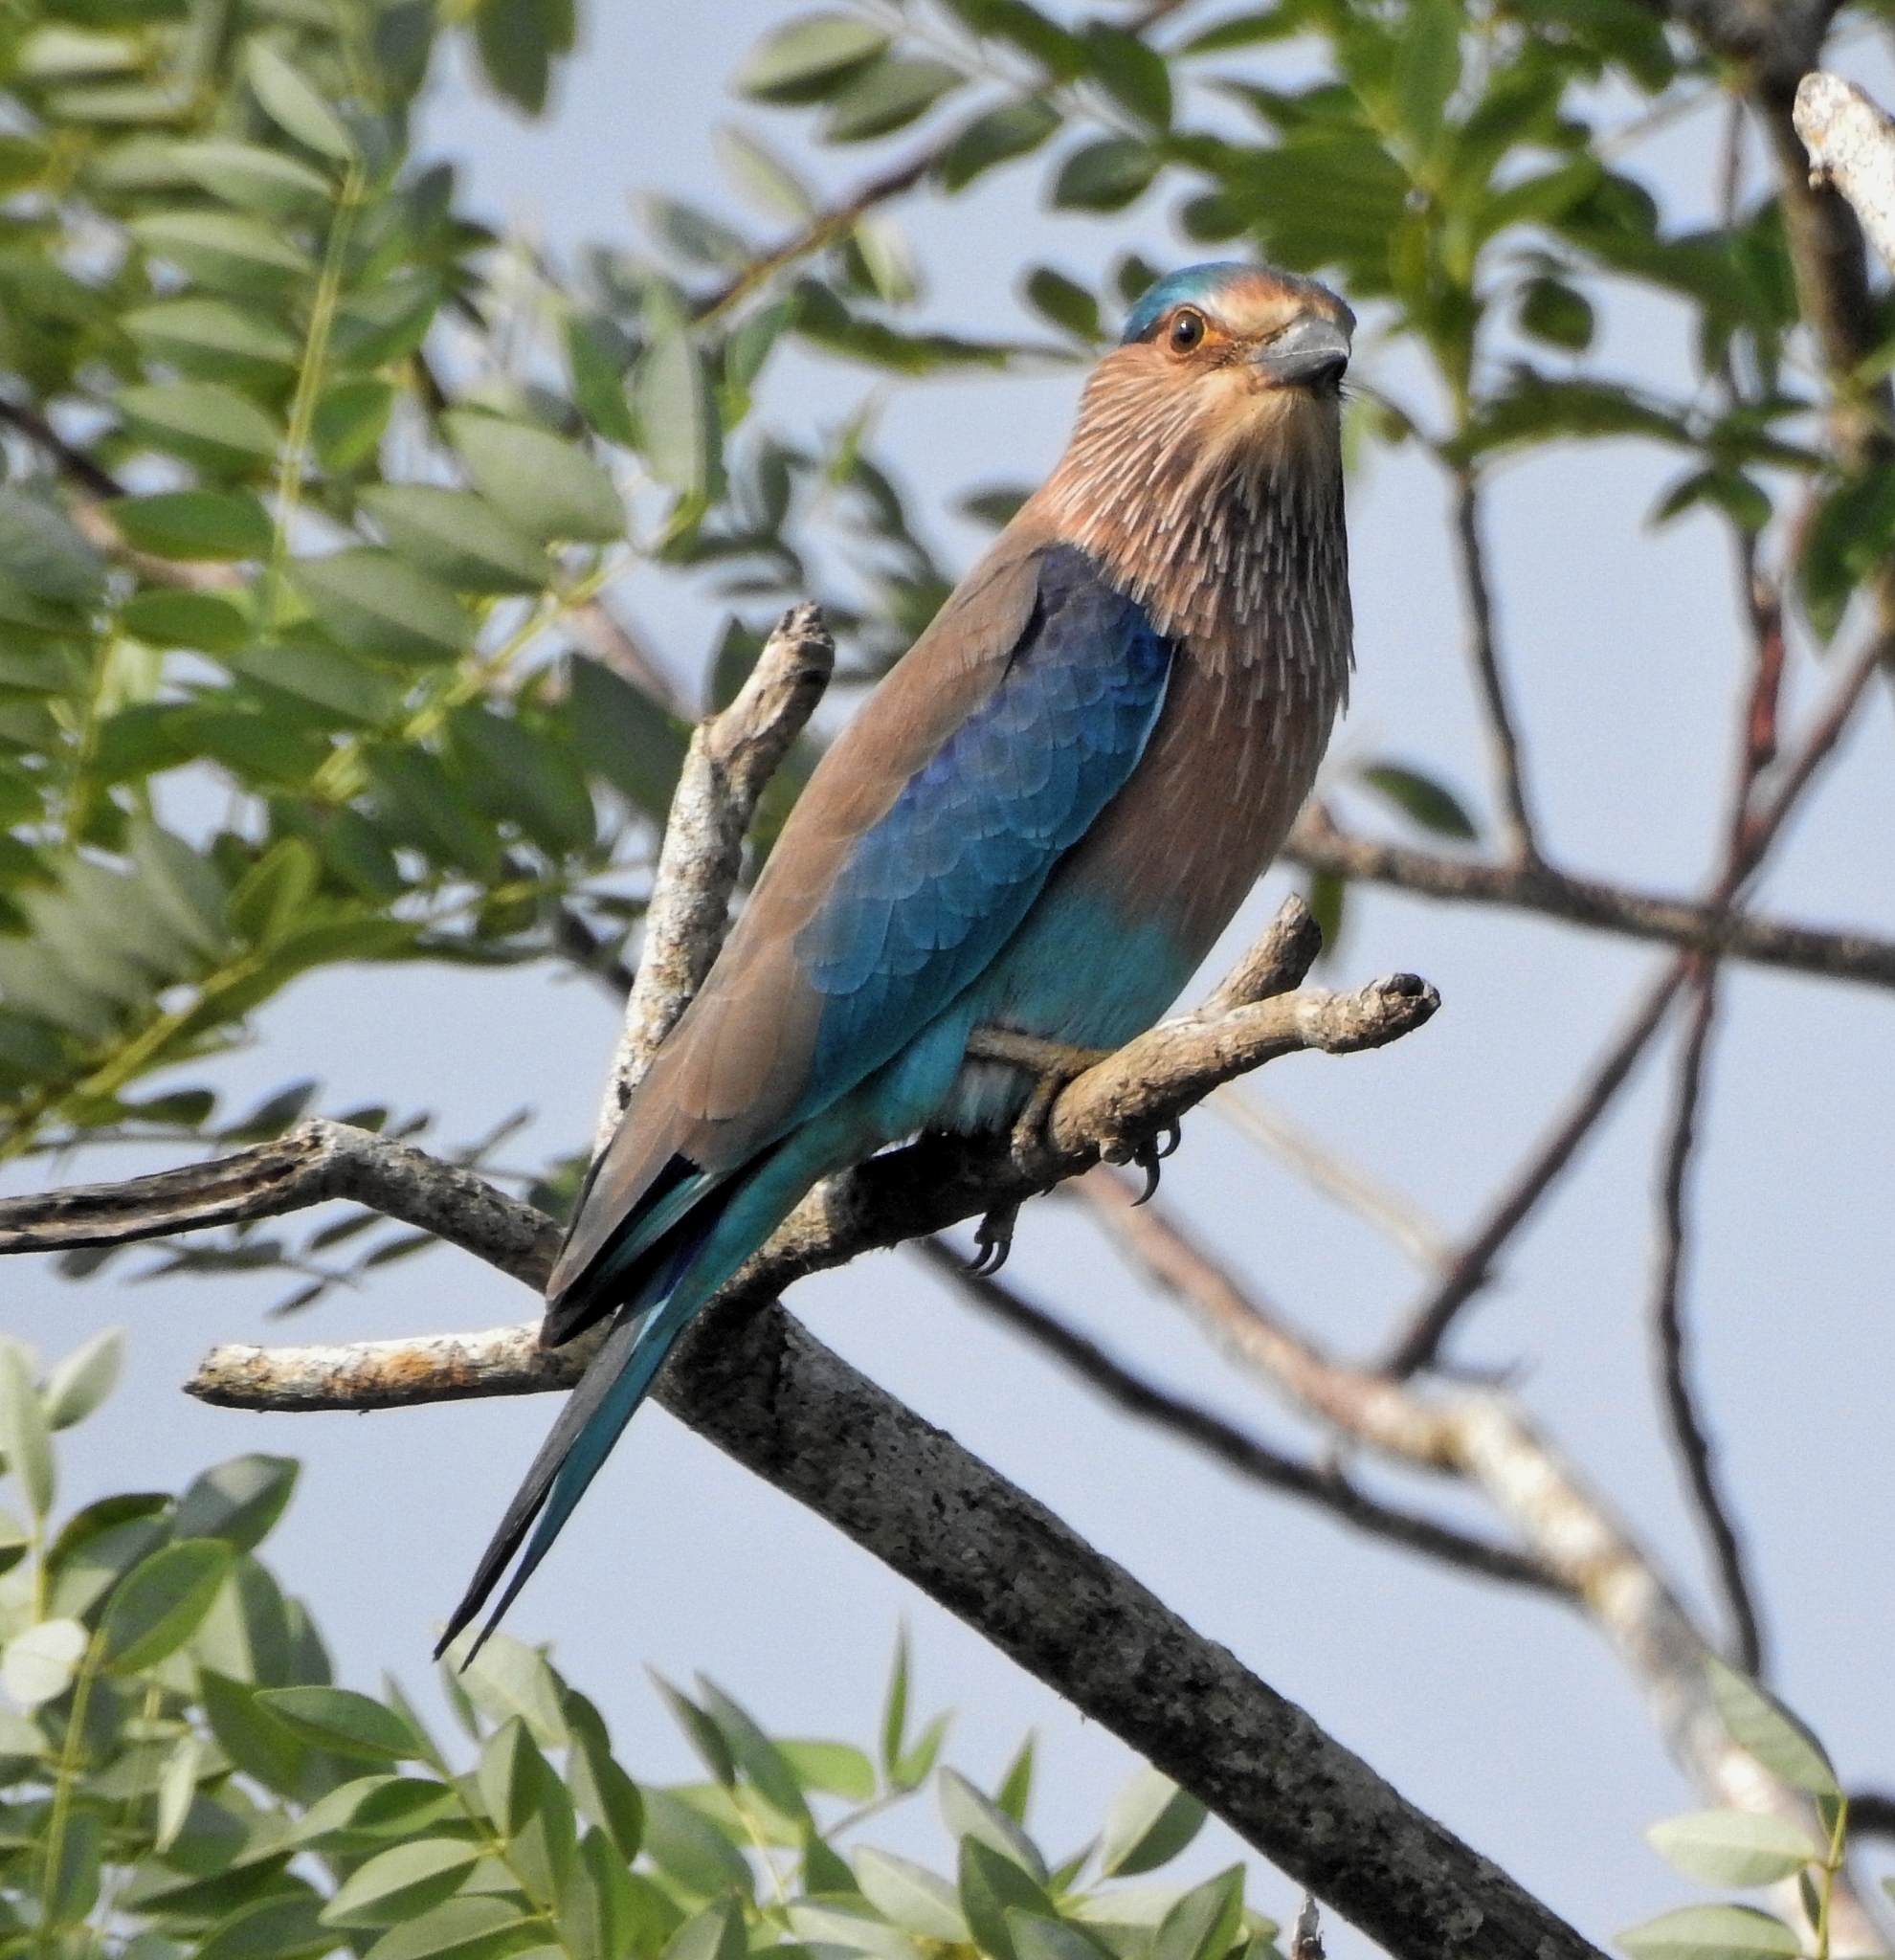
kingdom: Animalia
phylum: Chordata
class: Aves
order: Coraciiformes
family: Coraciidae
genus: Coracias
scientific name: Coracias benghalensis
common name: Indian roller
